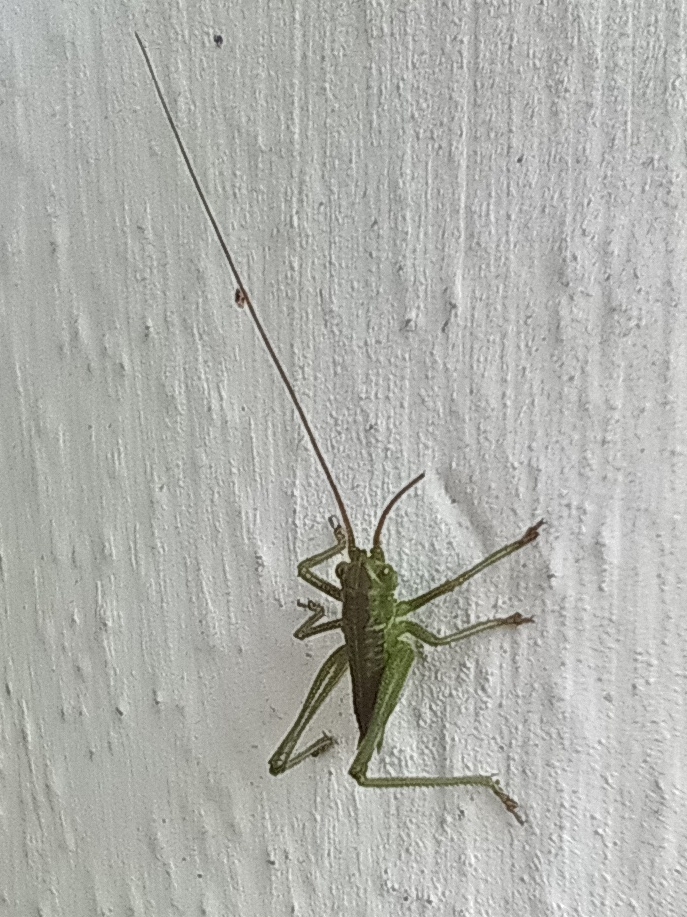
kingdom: Animalia
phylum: Arthropoda
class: Insecta
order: Orthoptera
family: Tettigoniidae
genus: Tettigonia
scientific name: Tettigonia viridissima
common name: Great green bush-cricket
